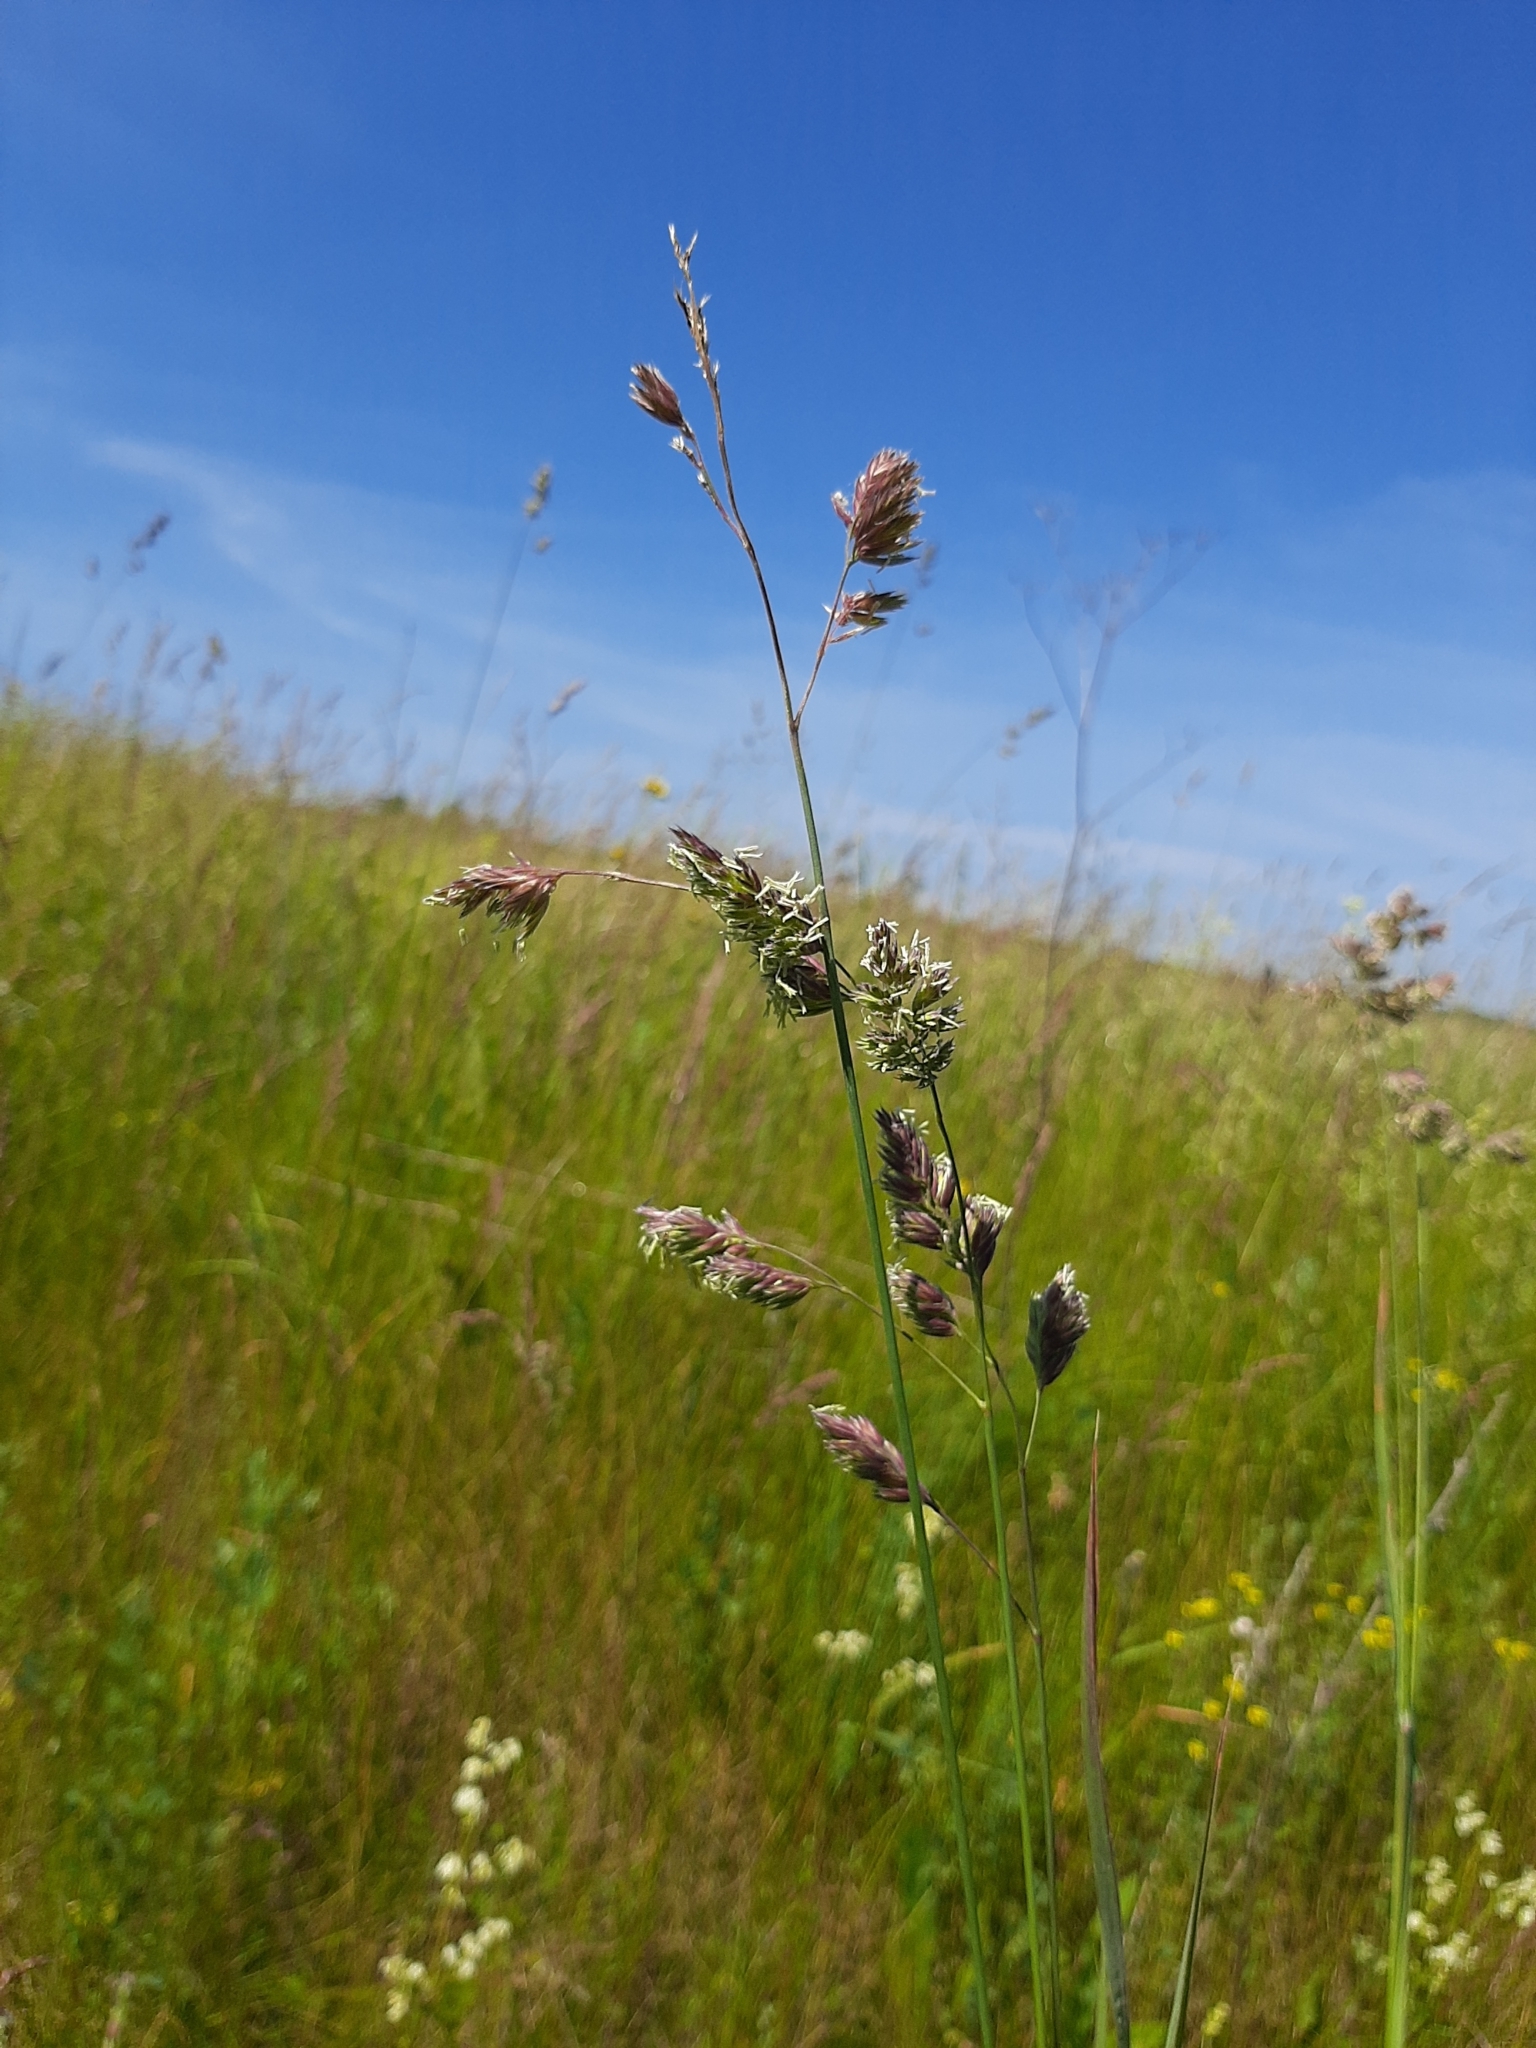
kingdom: Plantae
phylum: Tracheophyta
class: Liliopsida
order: Poales
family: Poaceae
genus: Dactylis
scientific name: Dactylis glomerata
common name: Orchardgrass
